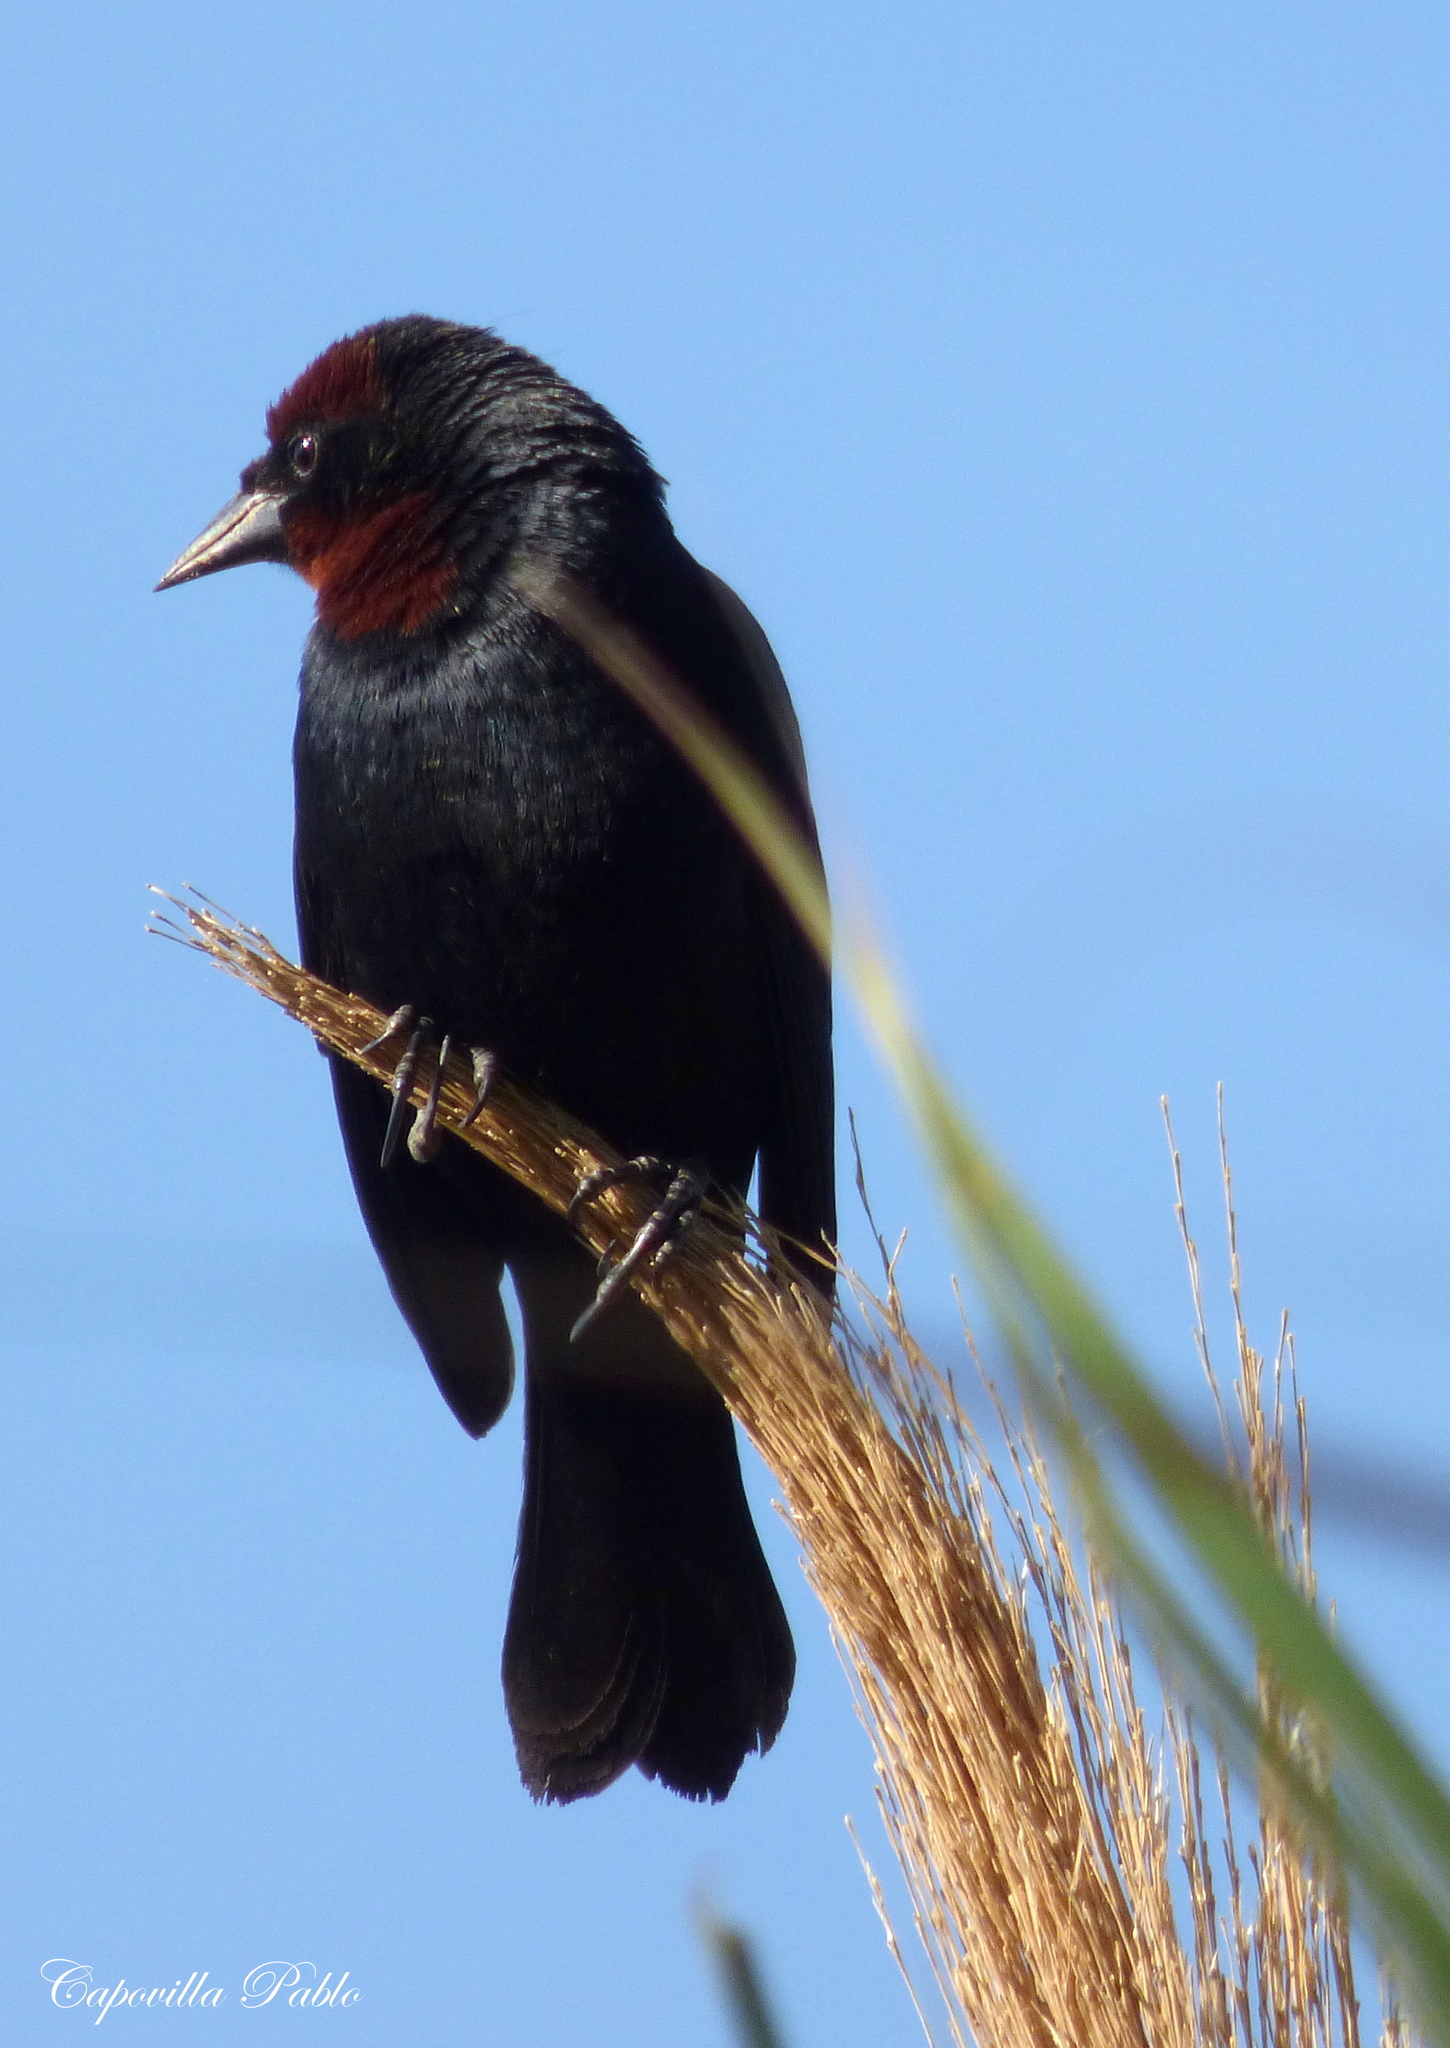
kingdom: Animalia
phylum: Chordata
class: Aves
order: Passeriformes
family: Icteridae
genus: Chrysomus
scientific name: Chrysomus ruficapillus
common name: Chestnut-capped blackbird
